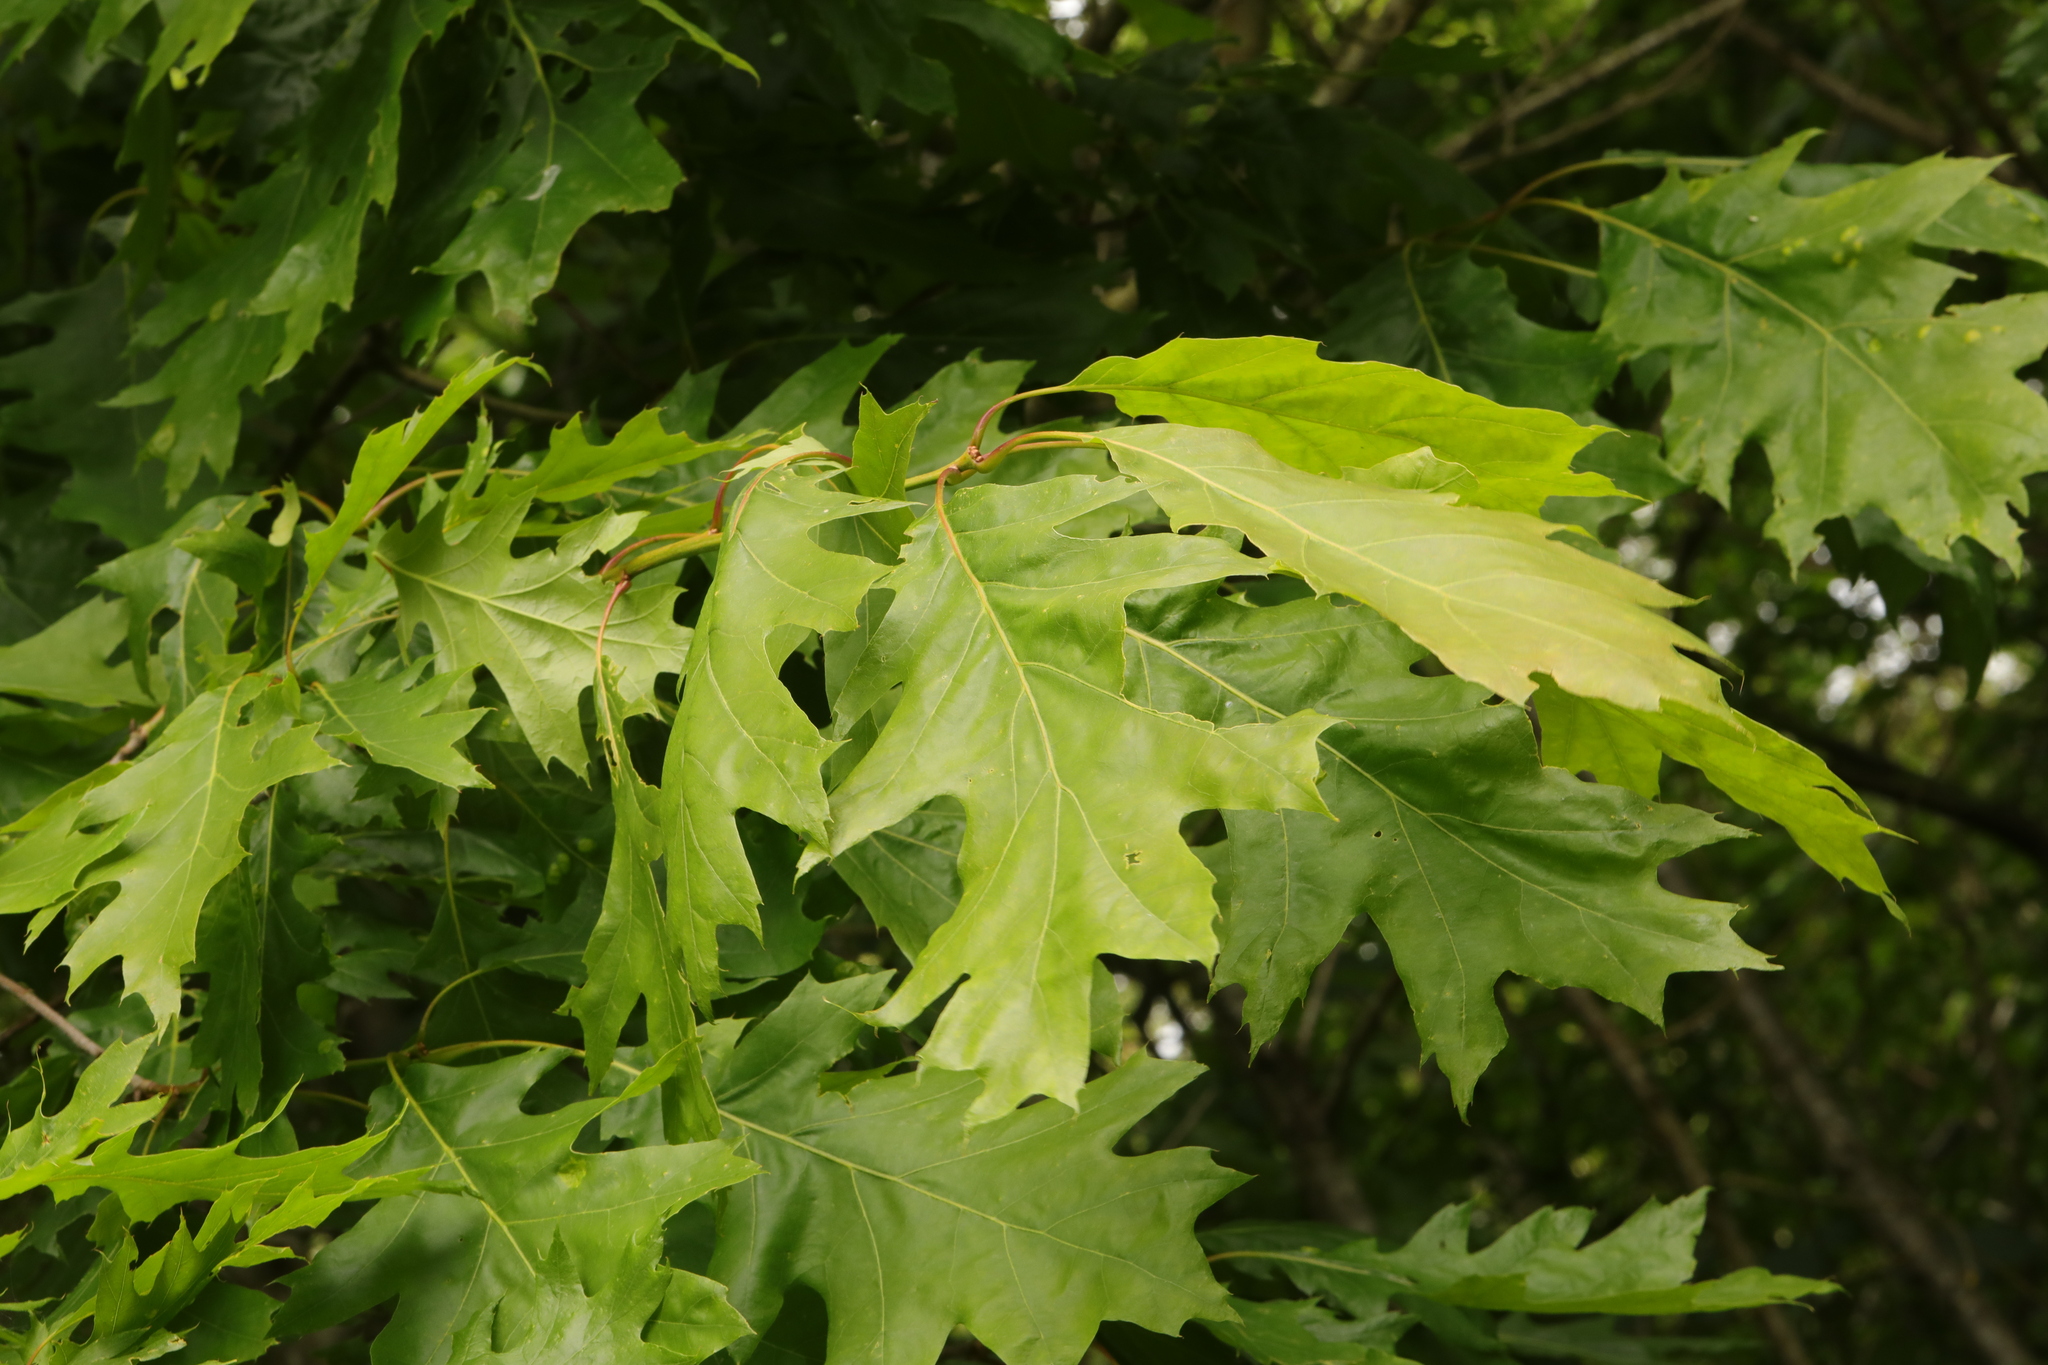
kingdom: Plantae
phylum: Tracheophyta
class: Magnoliopsida
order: Fagales
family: Fagaceae
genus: Quercus
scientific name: Quercus rubra
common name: Red oak
